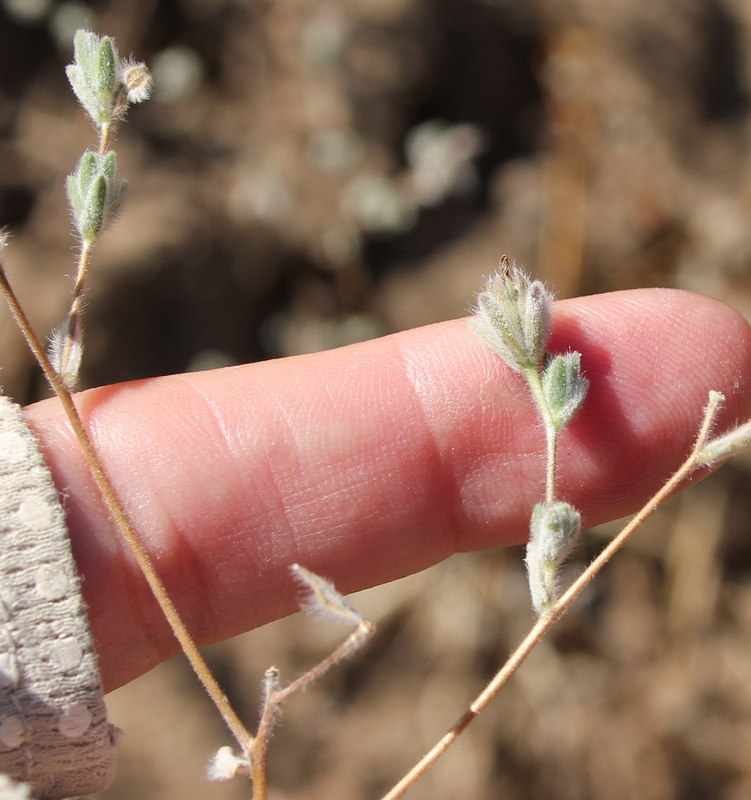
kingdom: Plantae
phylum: Tracheophyta
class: Magnoliopsida
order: Asterales
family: Asteraceae
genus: Lagophylla
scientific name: Lagophylla ramosissima
